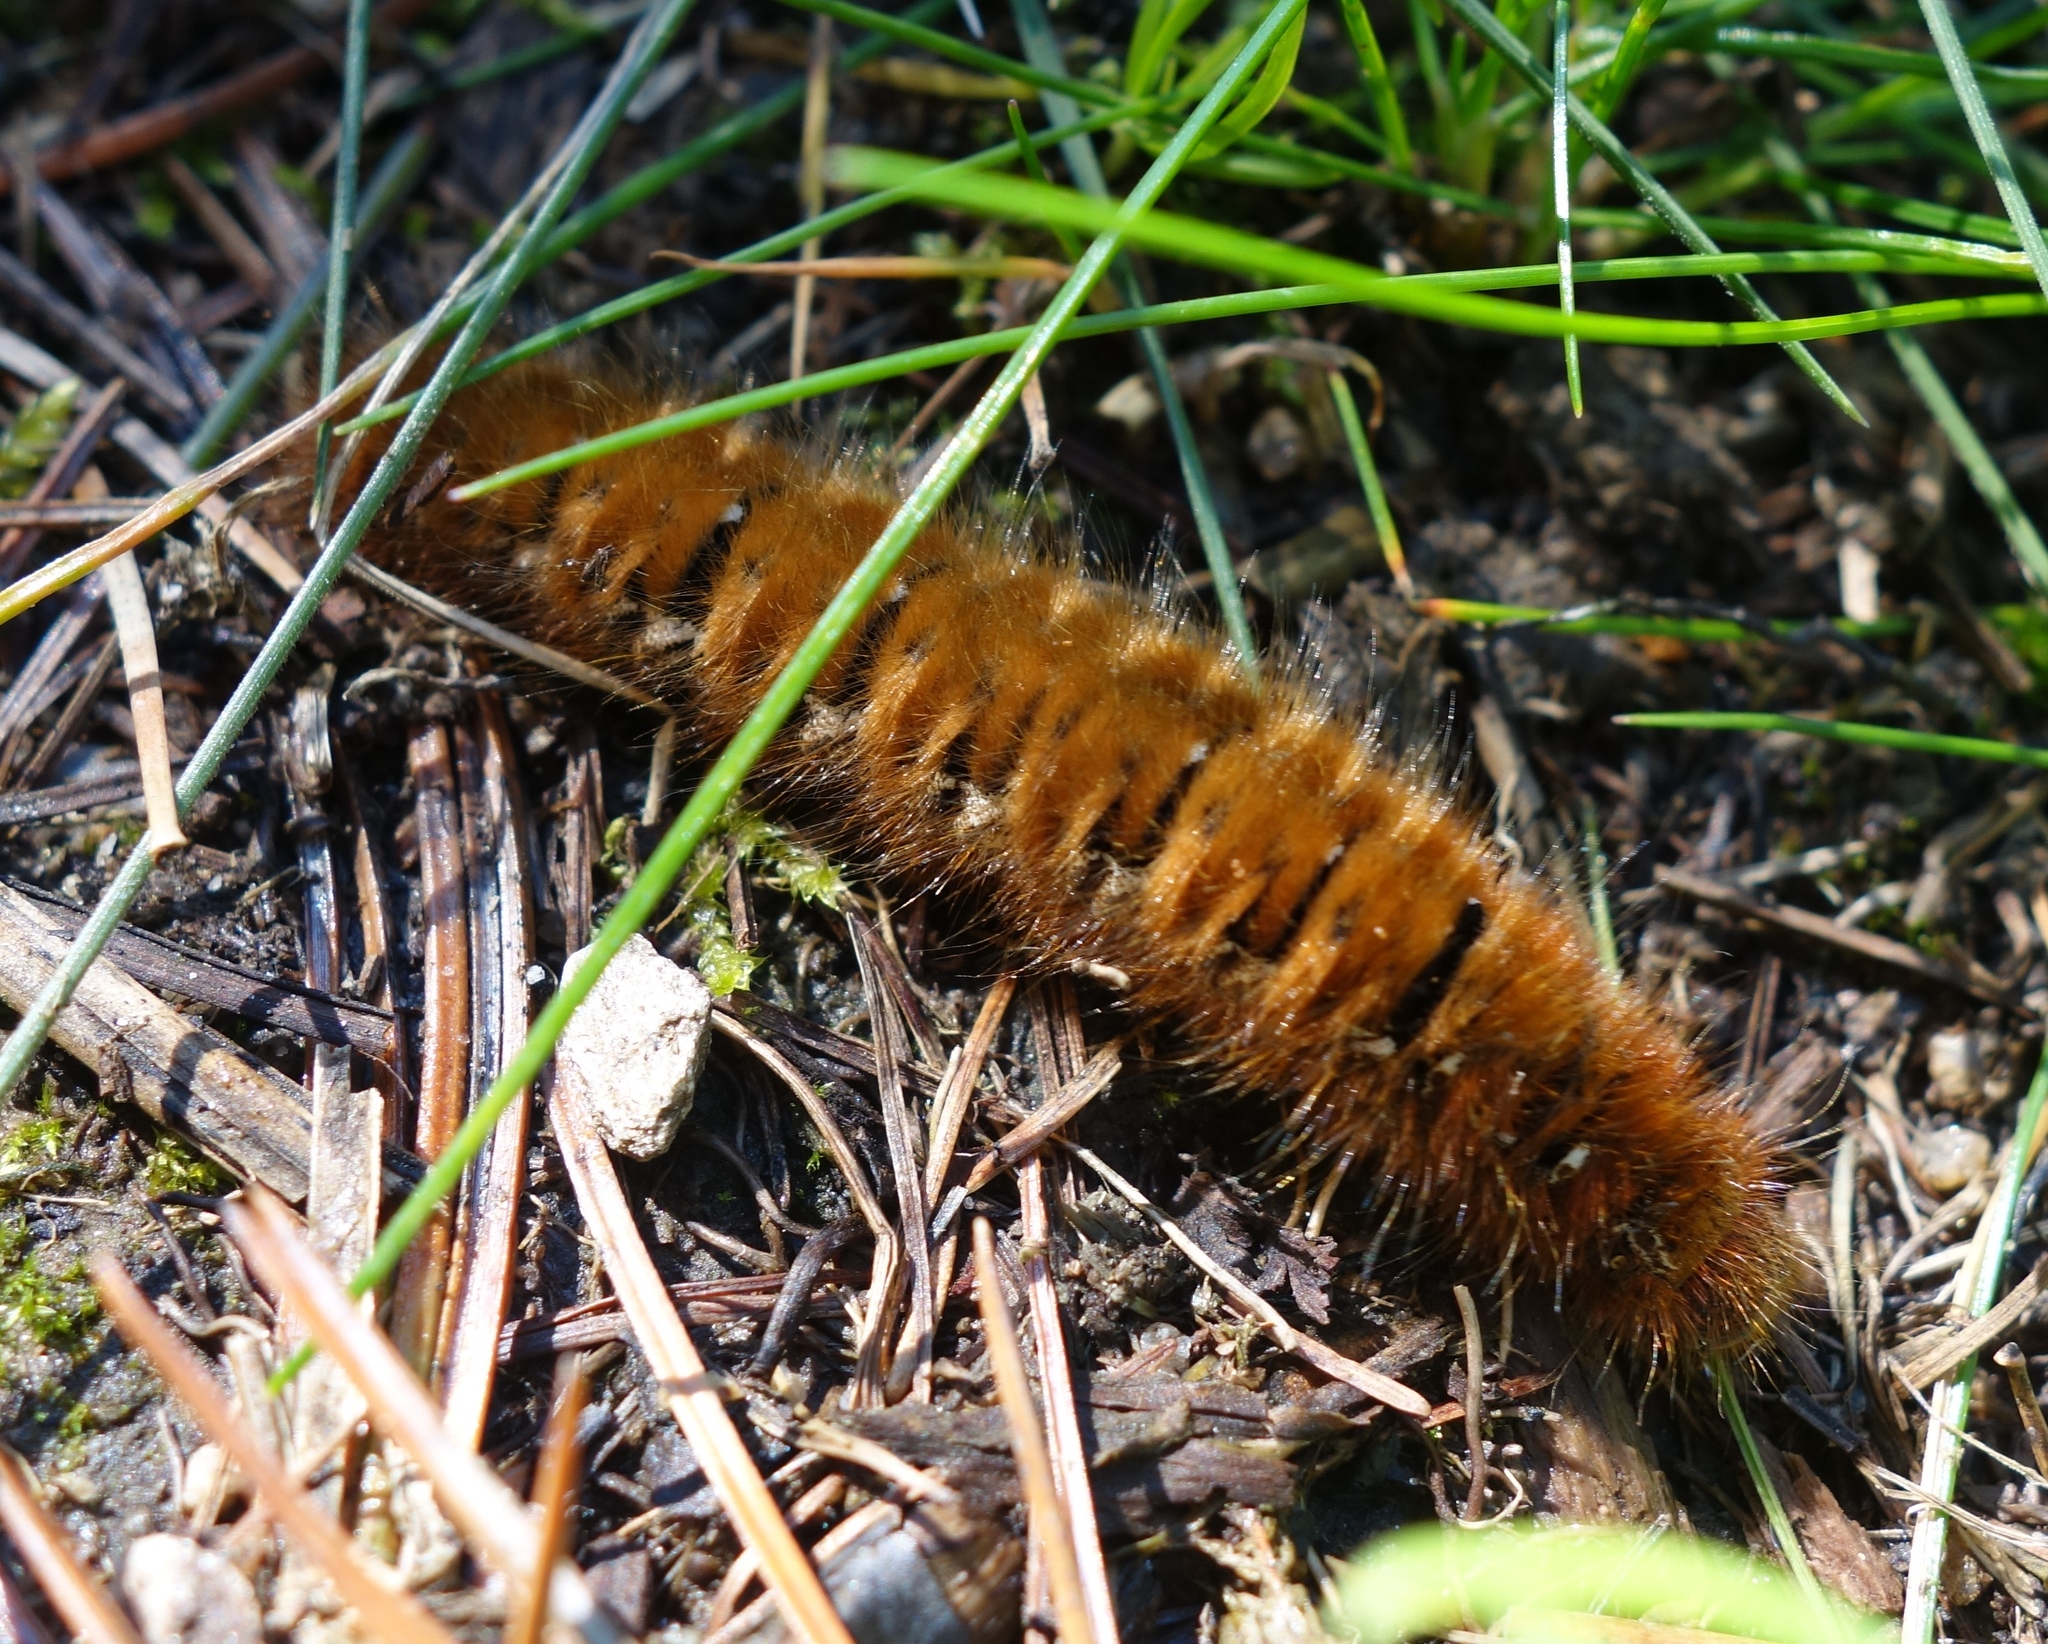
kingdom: Animalia
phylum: Arthropoda
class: Insecta
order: Lepidoptera
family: Lasiocampidae
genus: Lasiocampa
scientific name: Lasiocampa quercus
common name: Oak eggar
